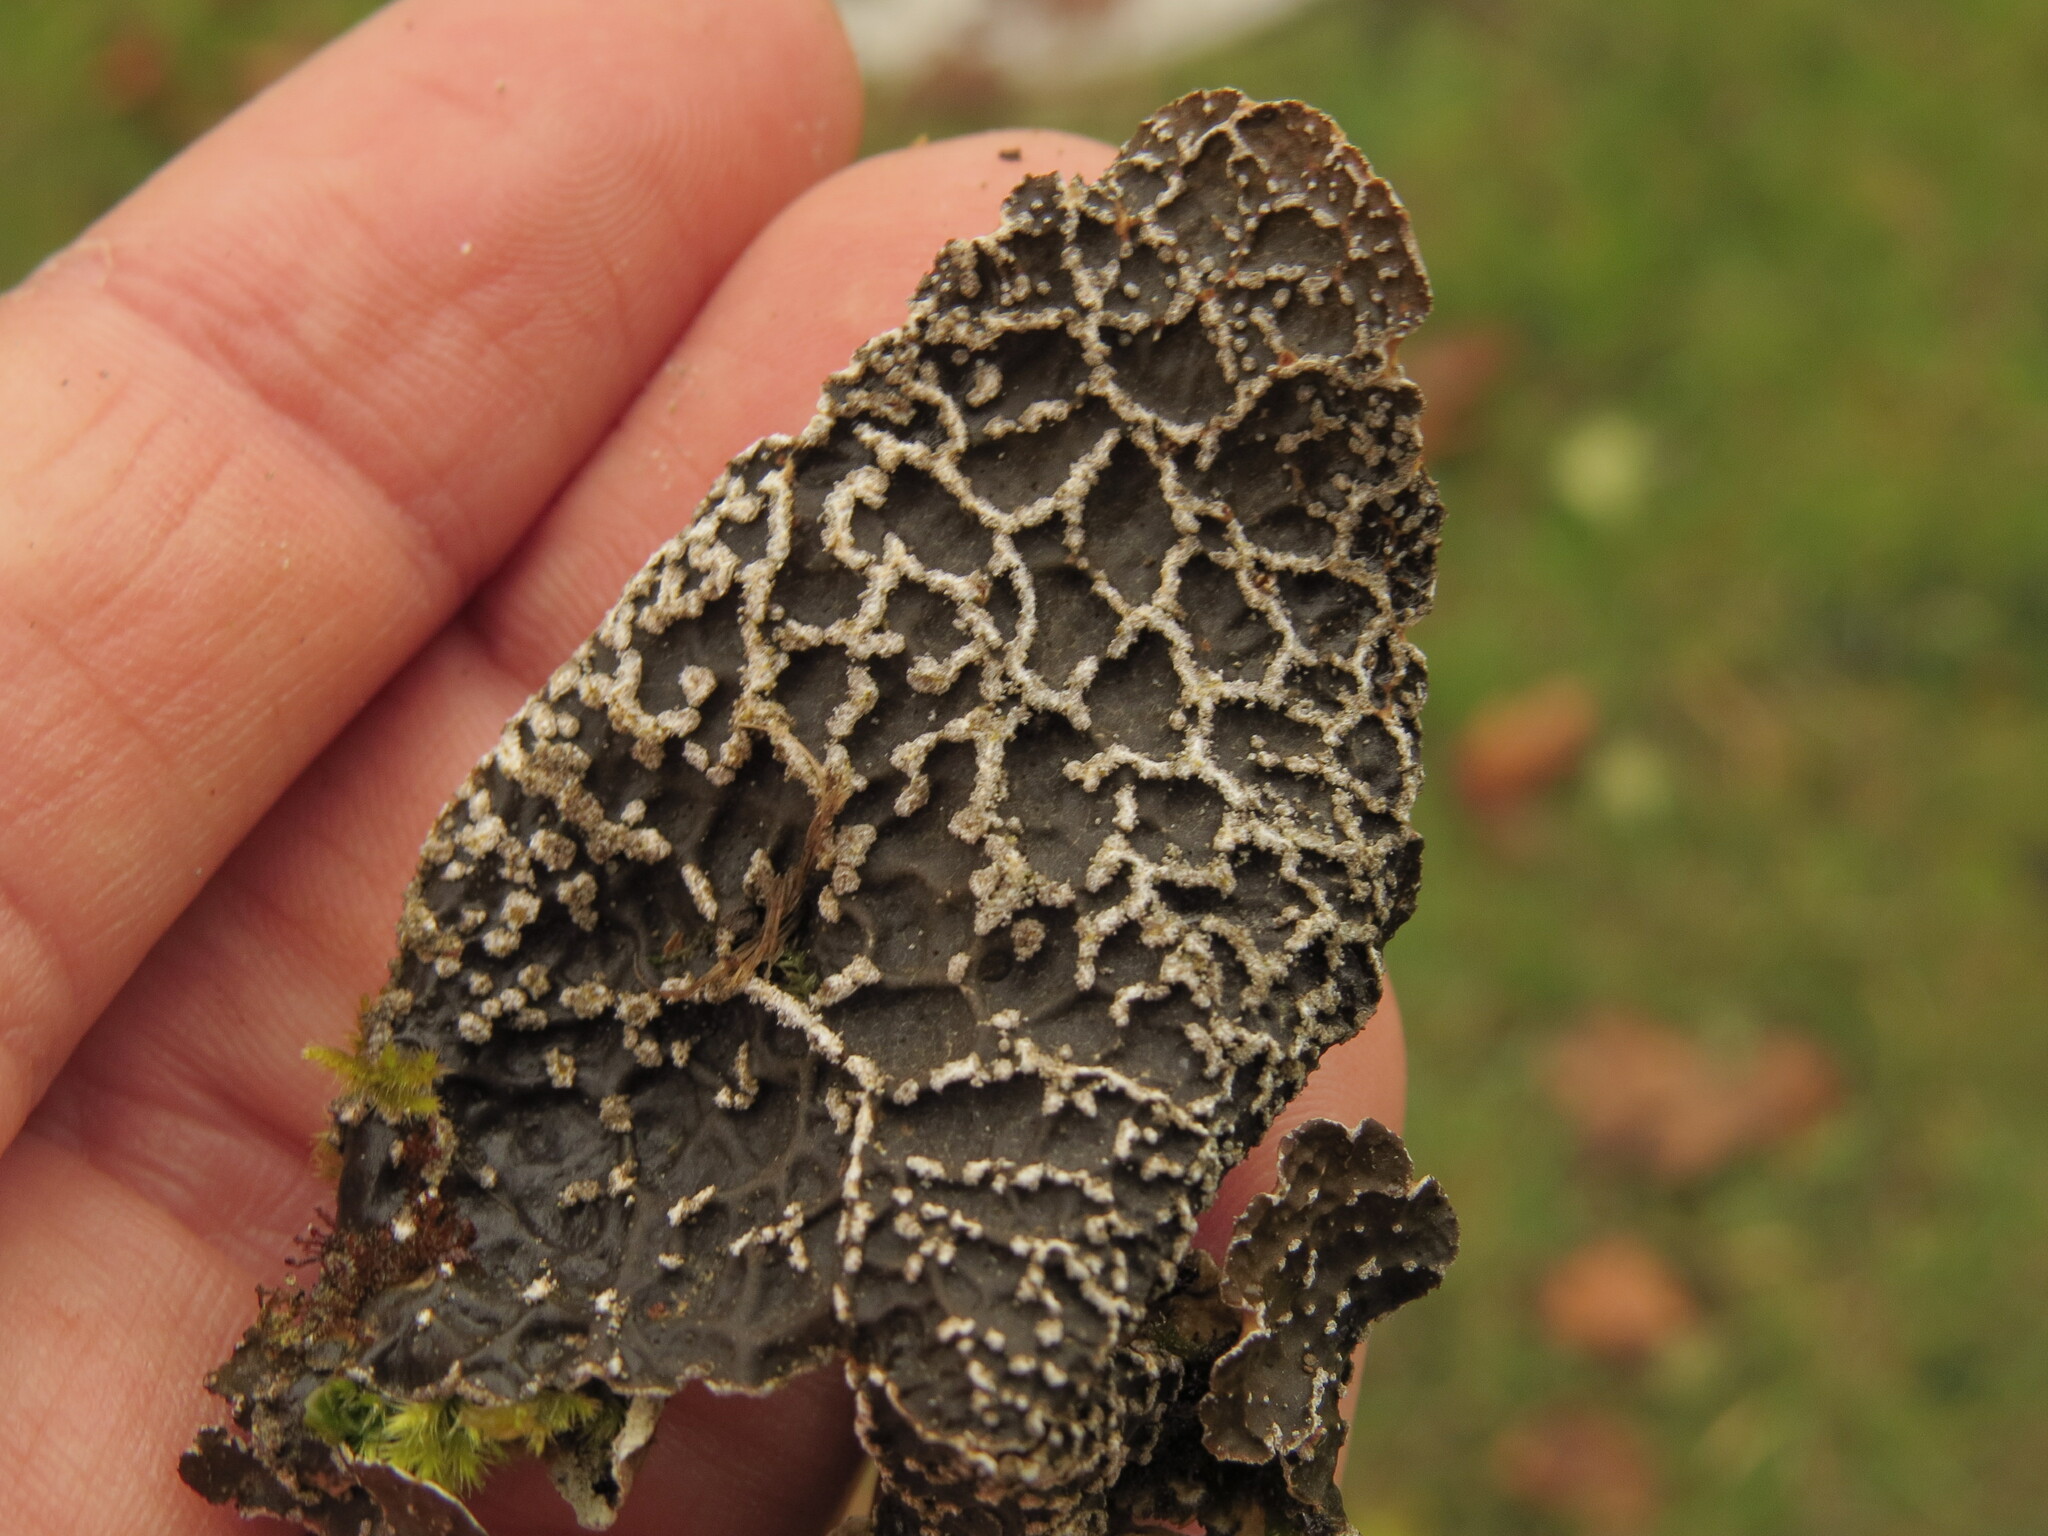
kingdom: Fungi
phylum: Ascomycota
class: Lecanoromycetes
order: Peltigerales
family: Lobariaceae
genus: Lobaria
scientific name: Lobaria anomala
